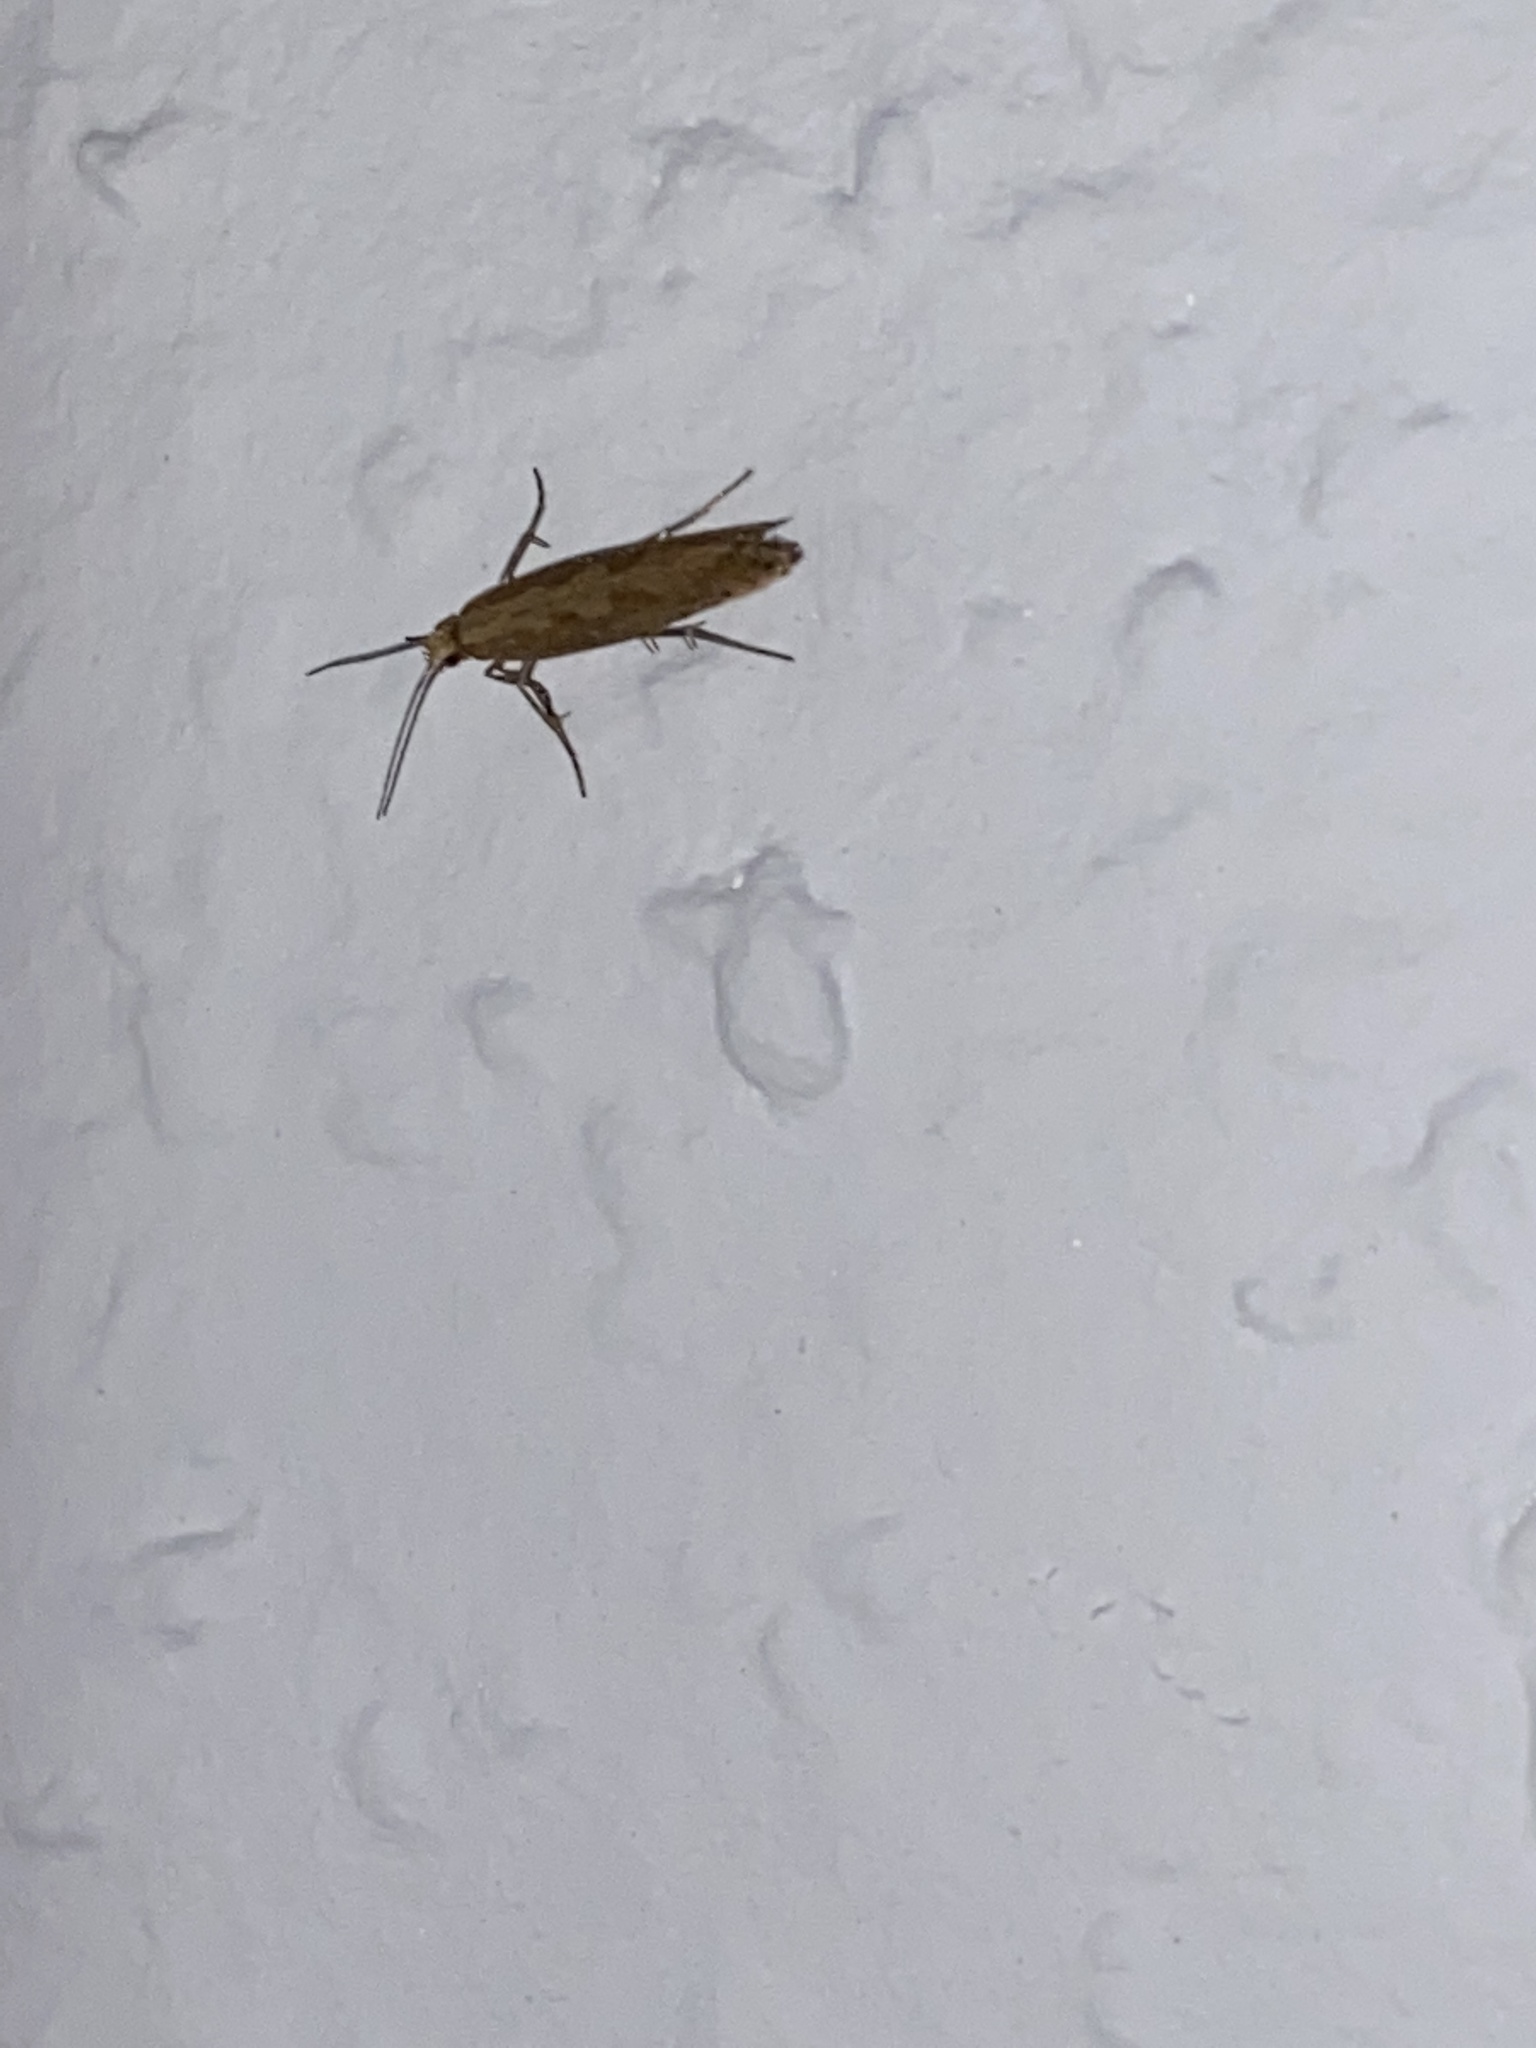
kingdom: Animalia
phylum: Arthropoda
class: Insecta
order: Lepidoptera
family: Plutellidae
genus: Plutella
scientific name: Plutella xylostella
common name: Diamond-back moth
